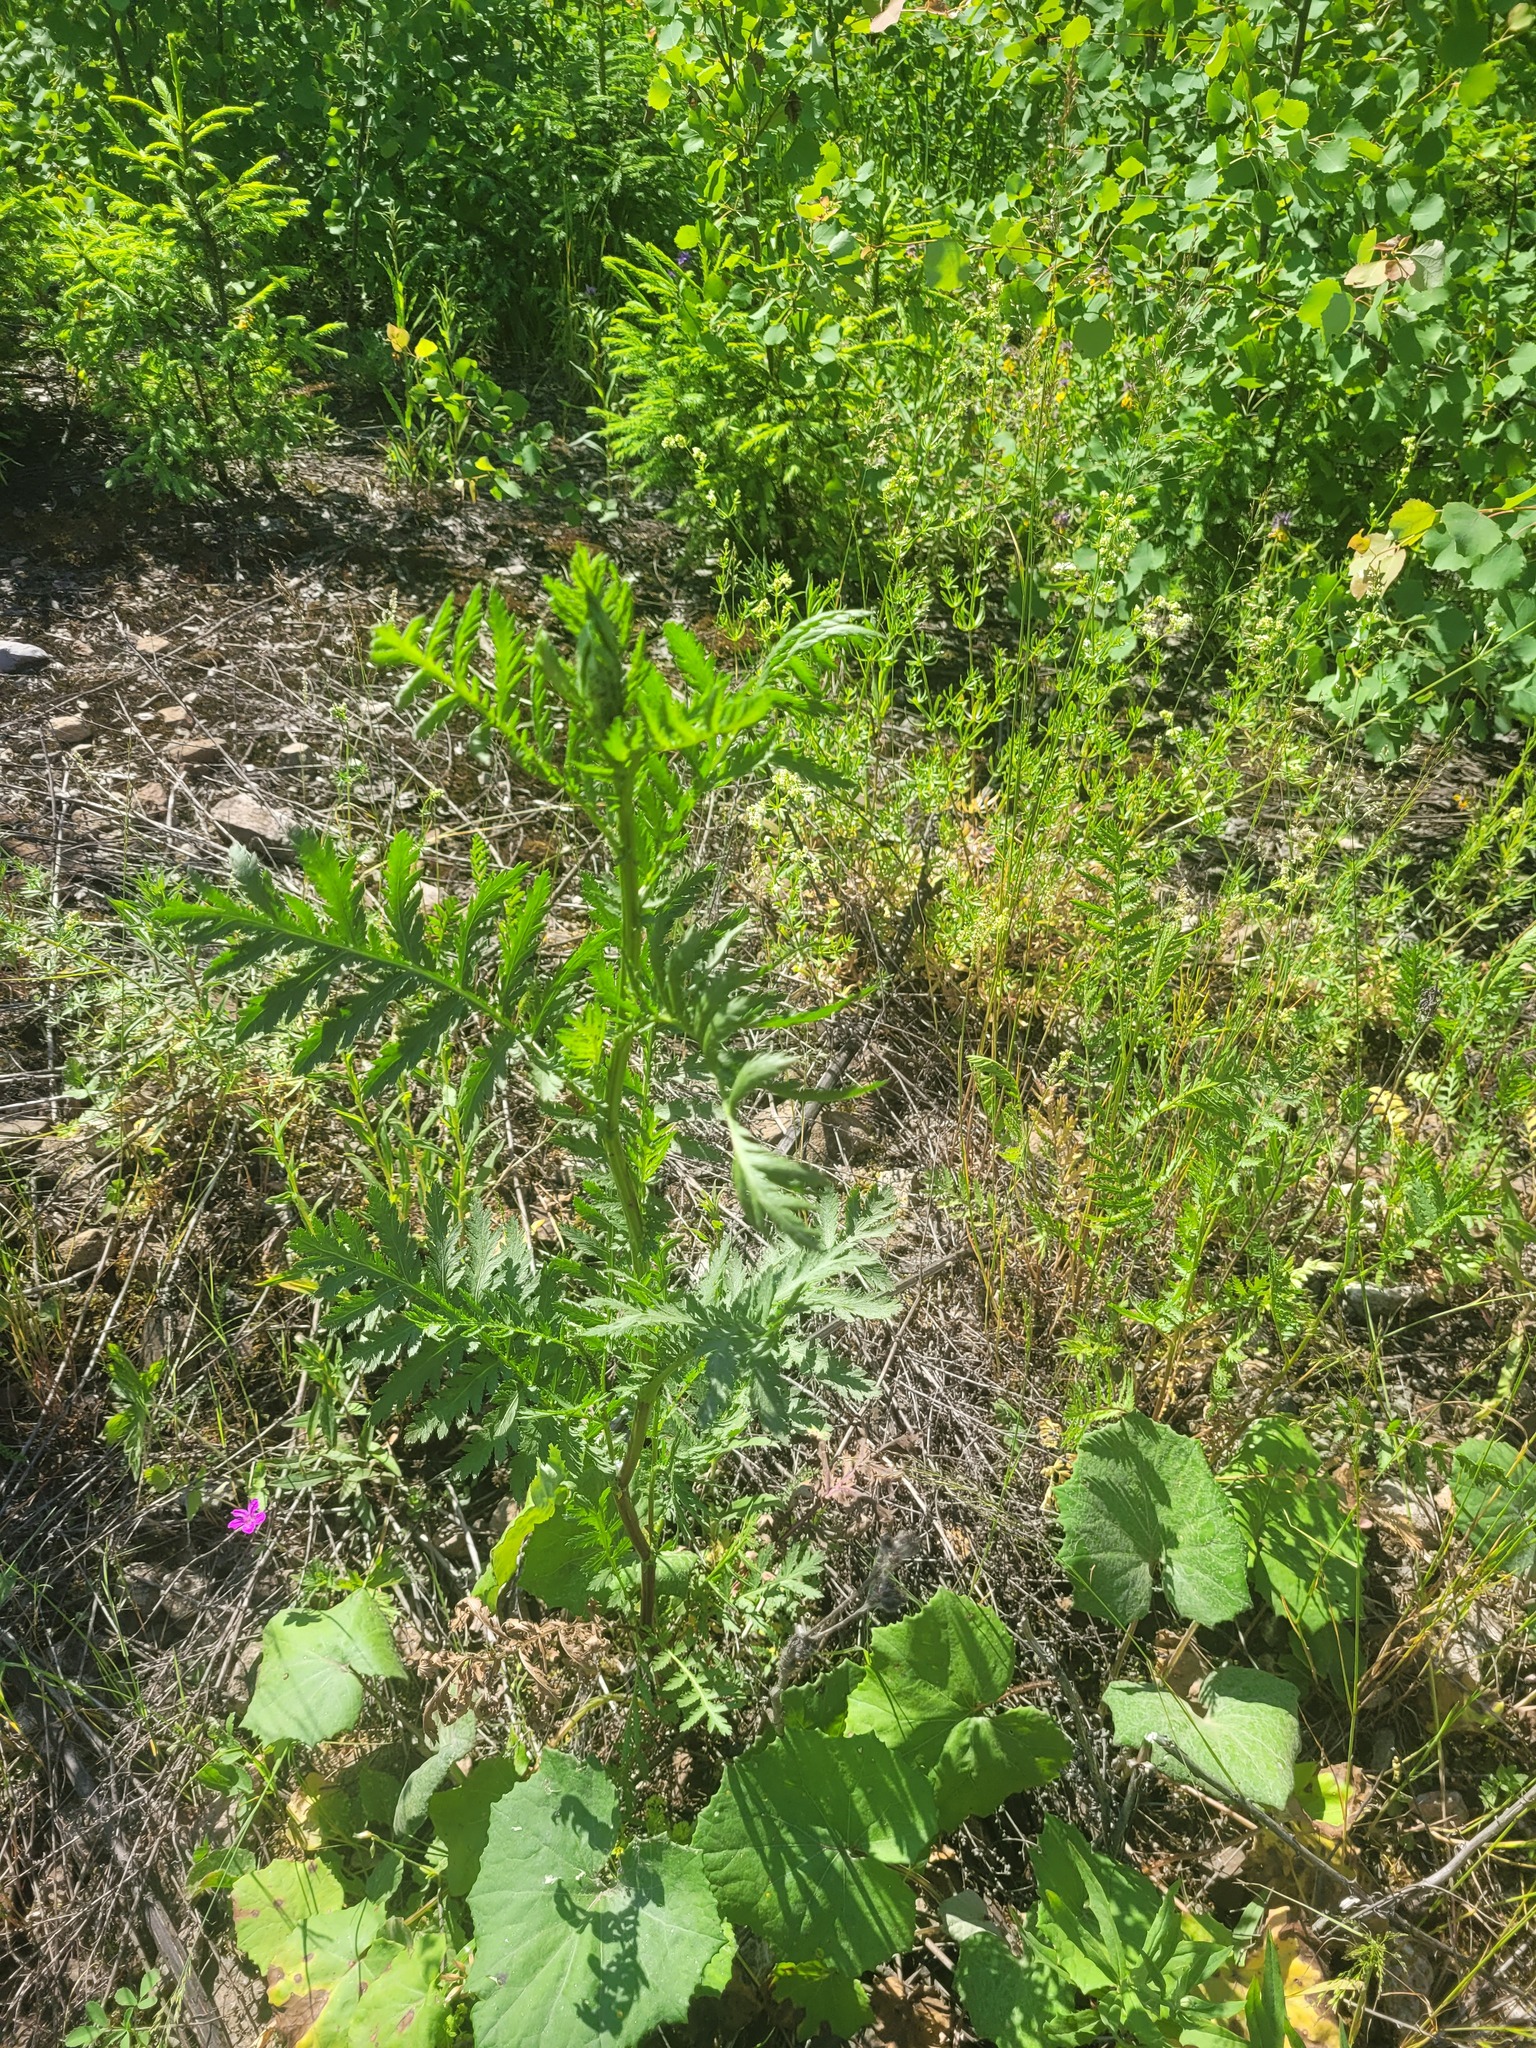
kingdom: Plantae
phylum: Tracheophyta
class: Magnoliopsida
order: Asterales
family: Asteraceae
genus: Tanacetum
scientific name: Tanacetum vulgare
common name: Common tansy
